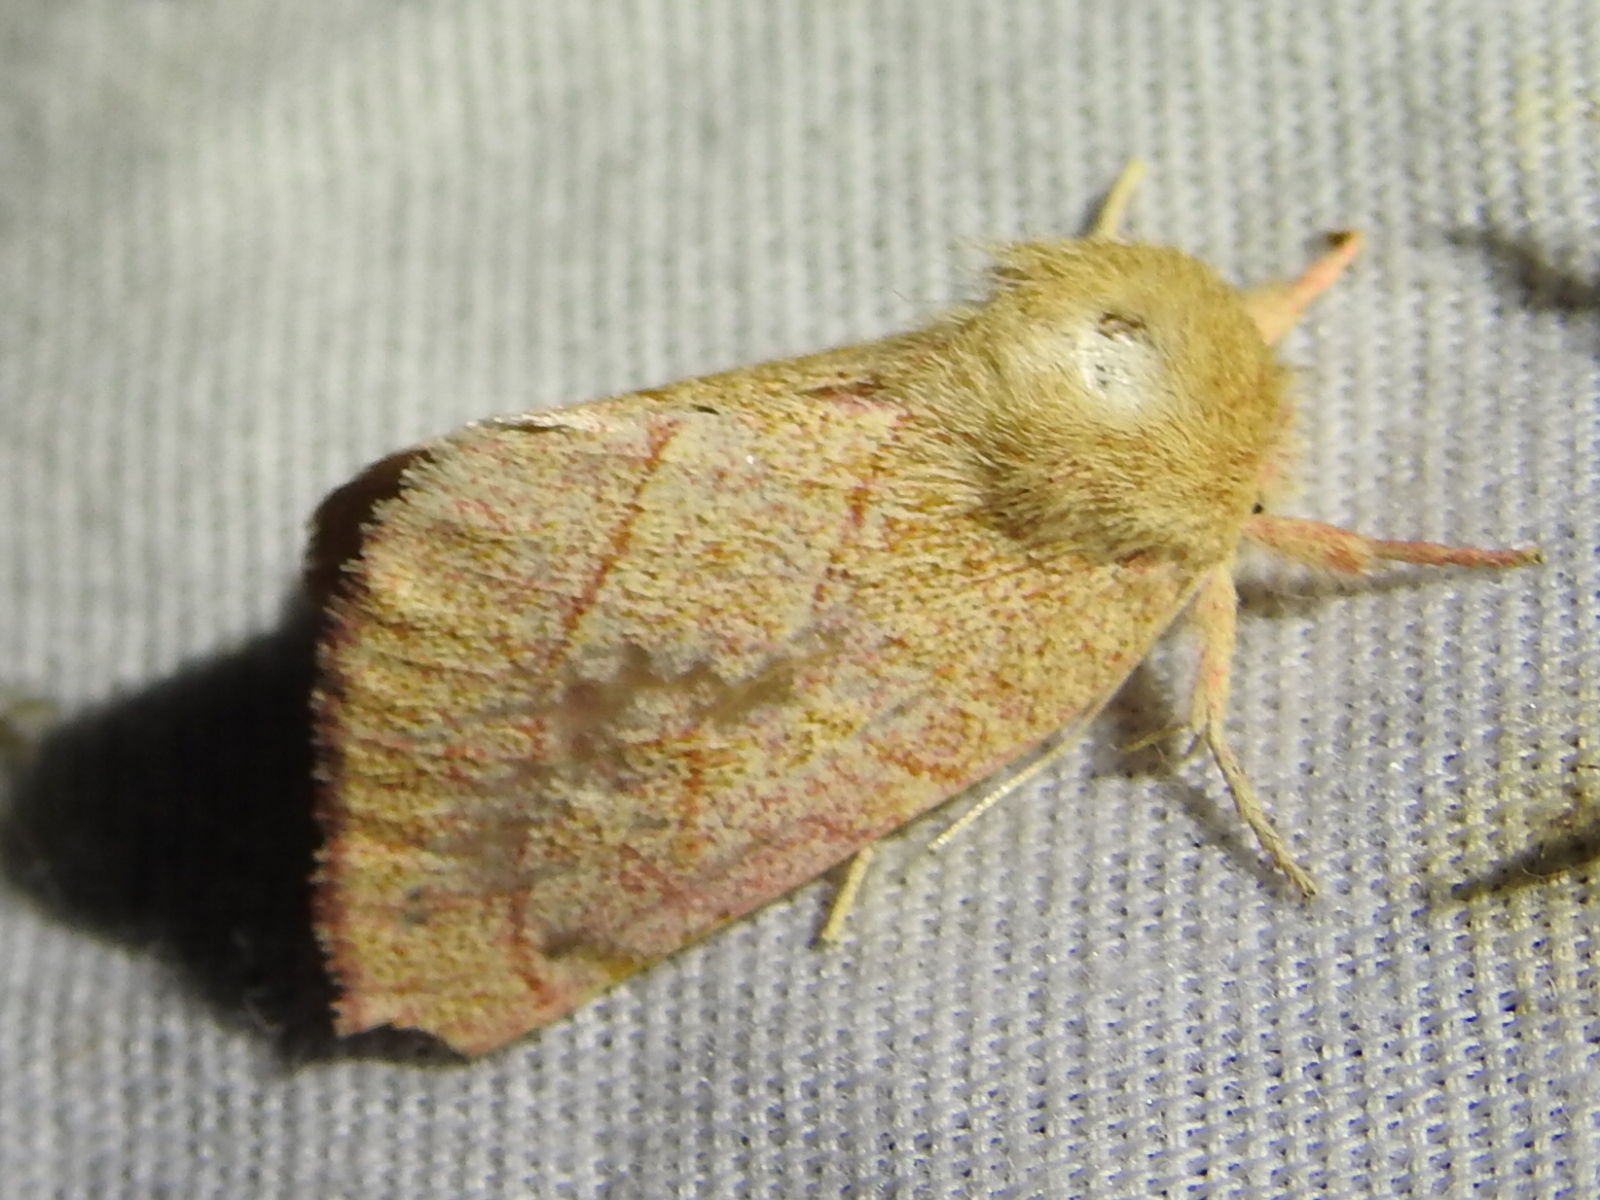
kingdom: Animalia
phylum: Arthropoda
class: Insecta
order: Lepidoptera
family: Notodontidae
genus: Hyparpax
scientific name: Hyparpax aurostriata
